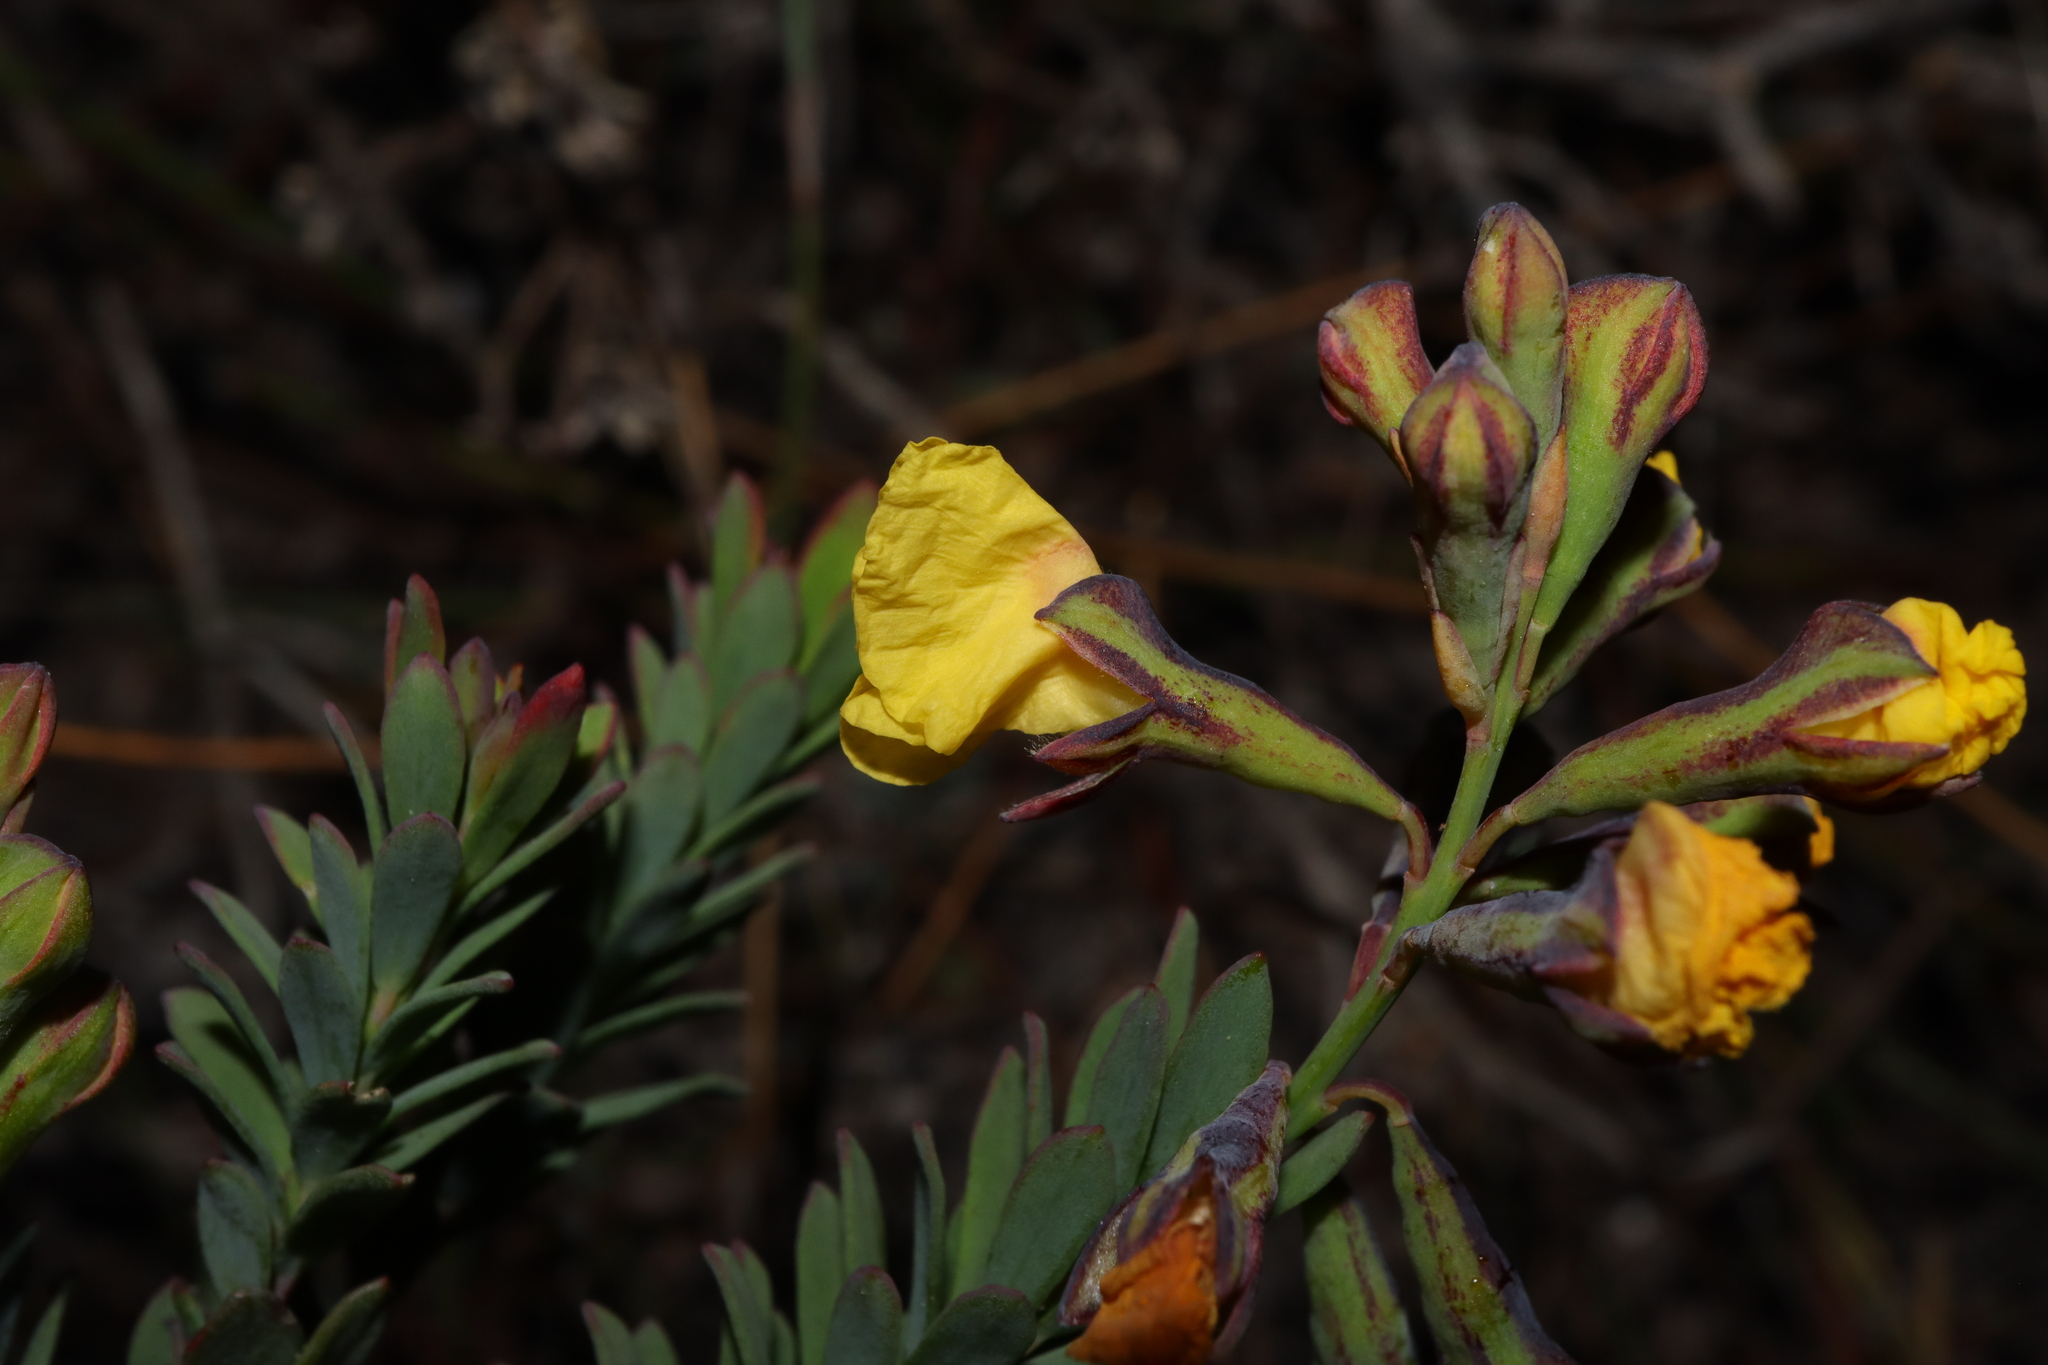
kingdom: Plantae
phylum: Tracheophyta
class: Magnoliopsida
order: Fabales
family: Fabaceae
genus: Sphaerolobium
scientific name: Sphaerolobium nudiflorum
